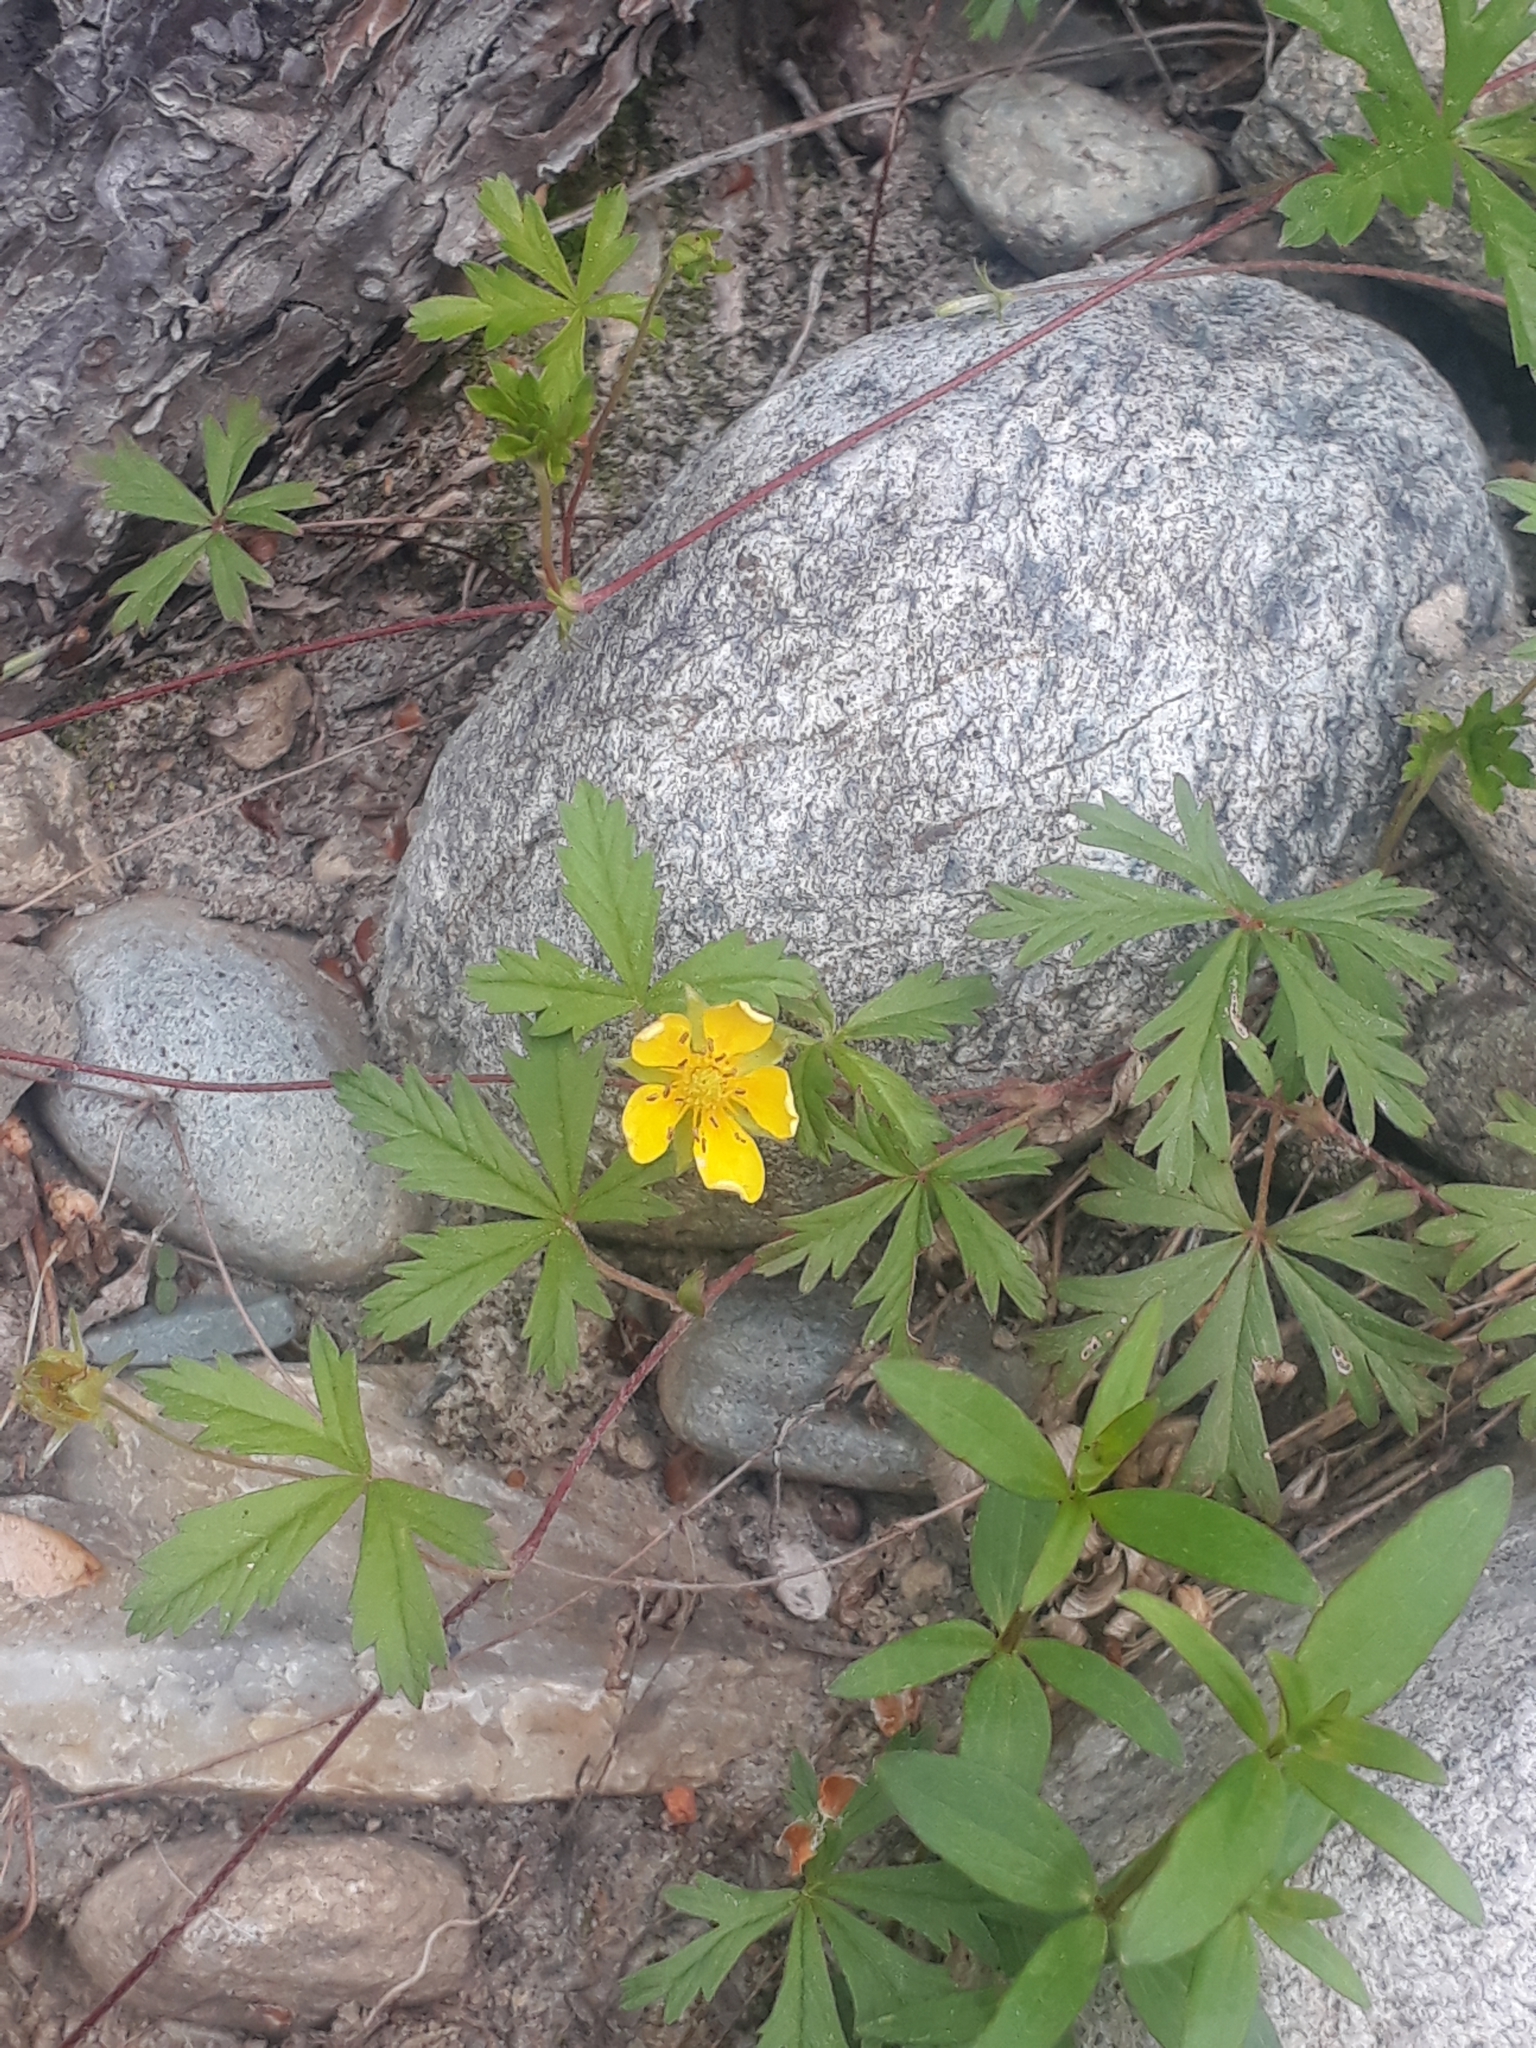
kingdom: Plantae
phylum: Tracheophyta
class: Magnoliopsida
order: Rosales
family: Rosaceae
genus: Potentilla
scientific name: Potentilla flagellaris
